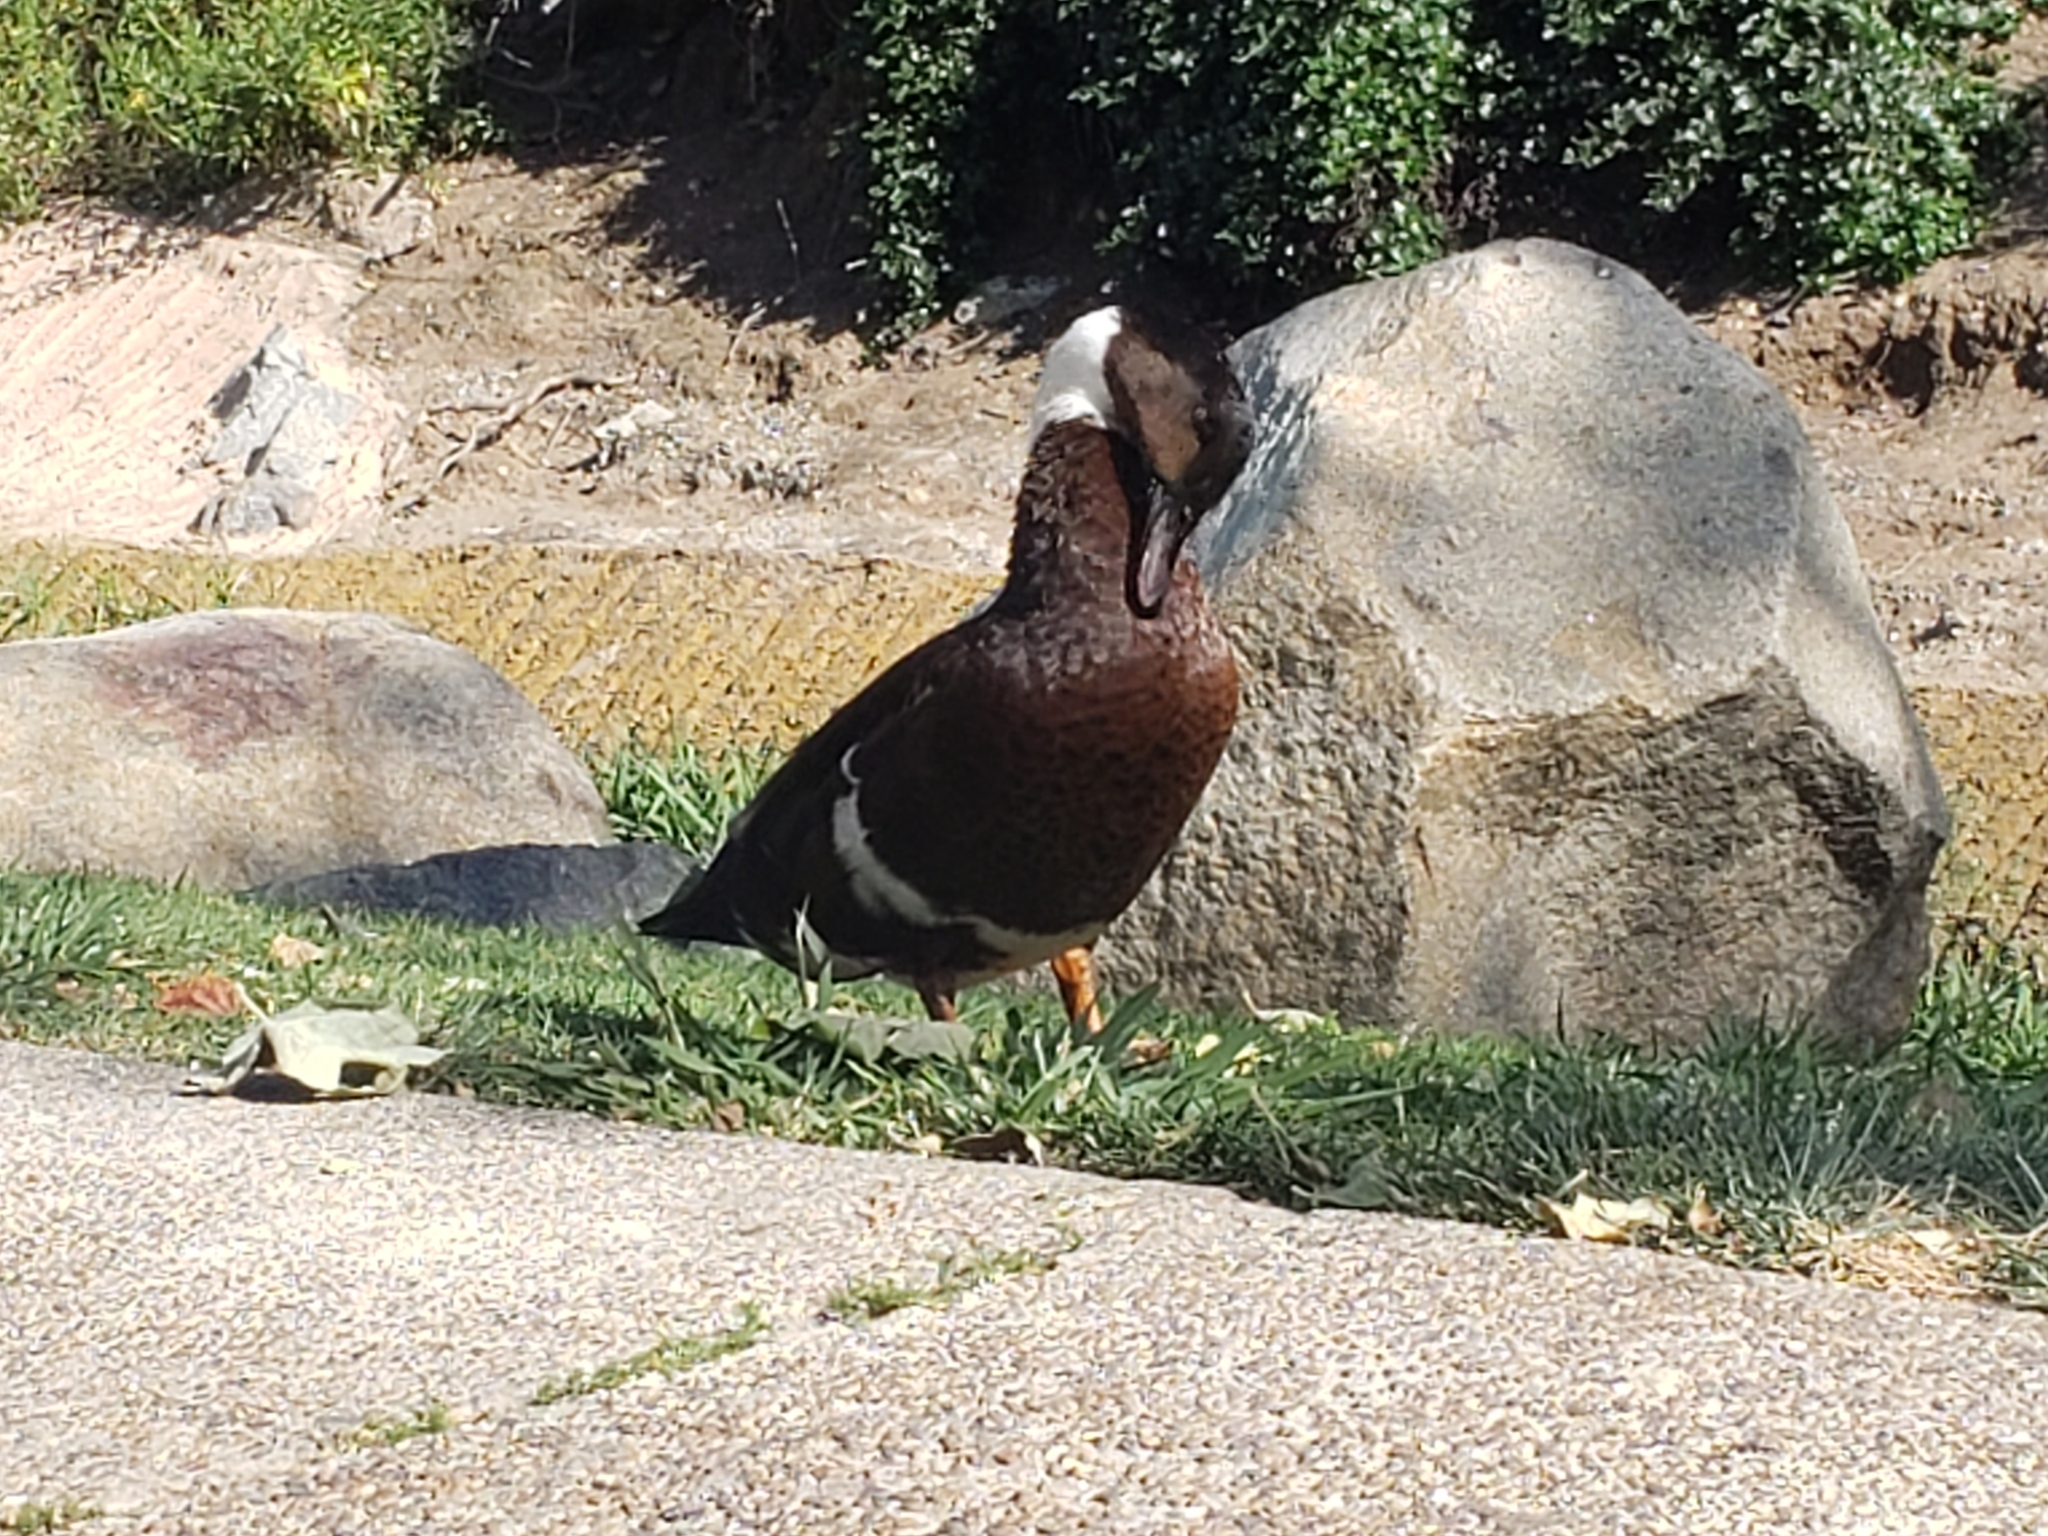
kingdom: Animalia
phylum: Chordata
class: Aves
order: Anseriformes
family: Anatidae
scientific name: Anatidae
